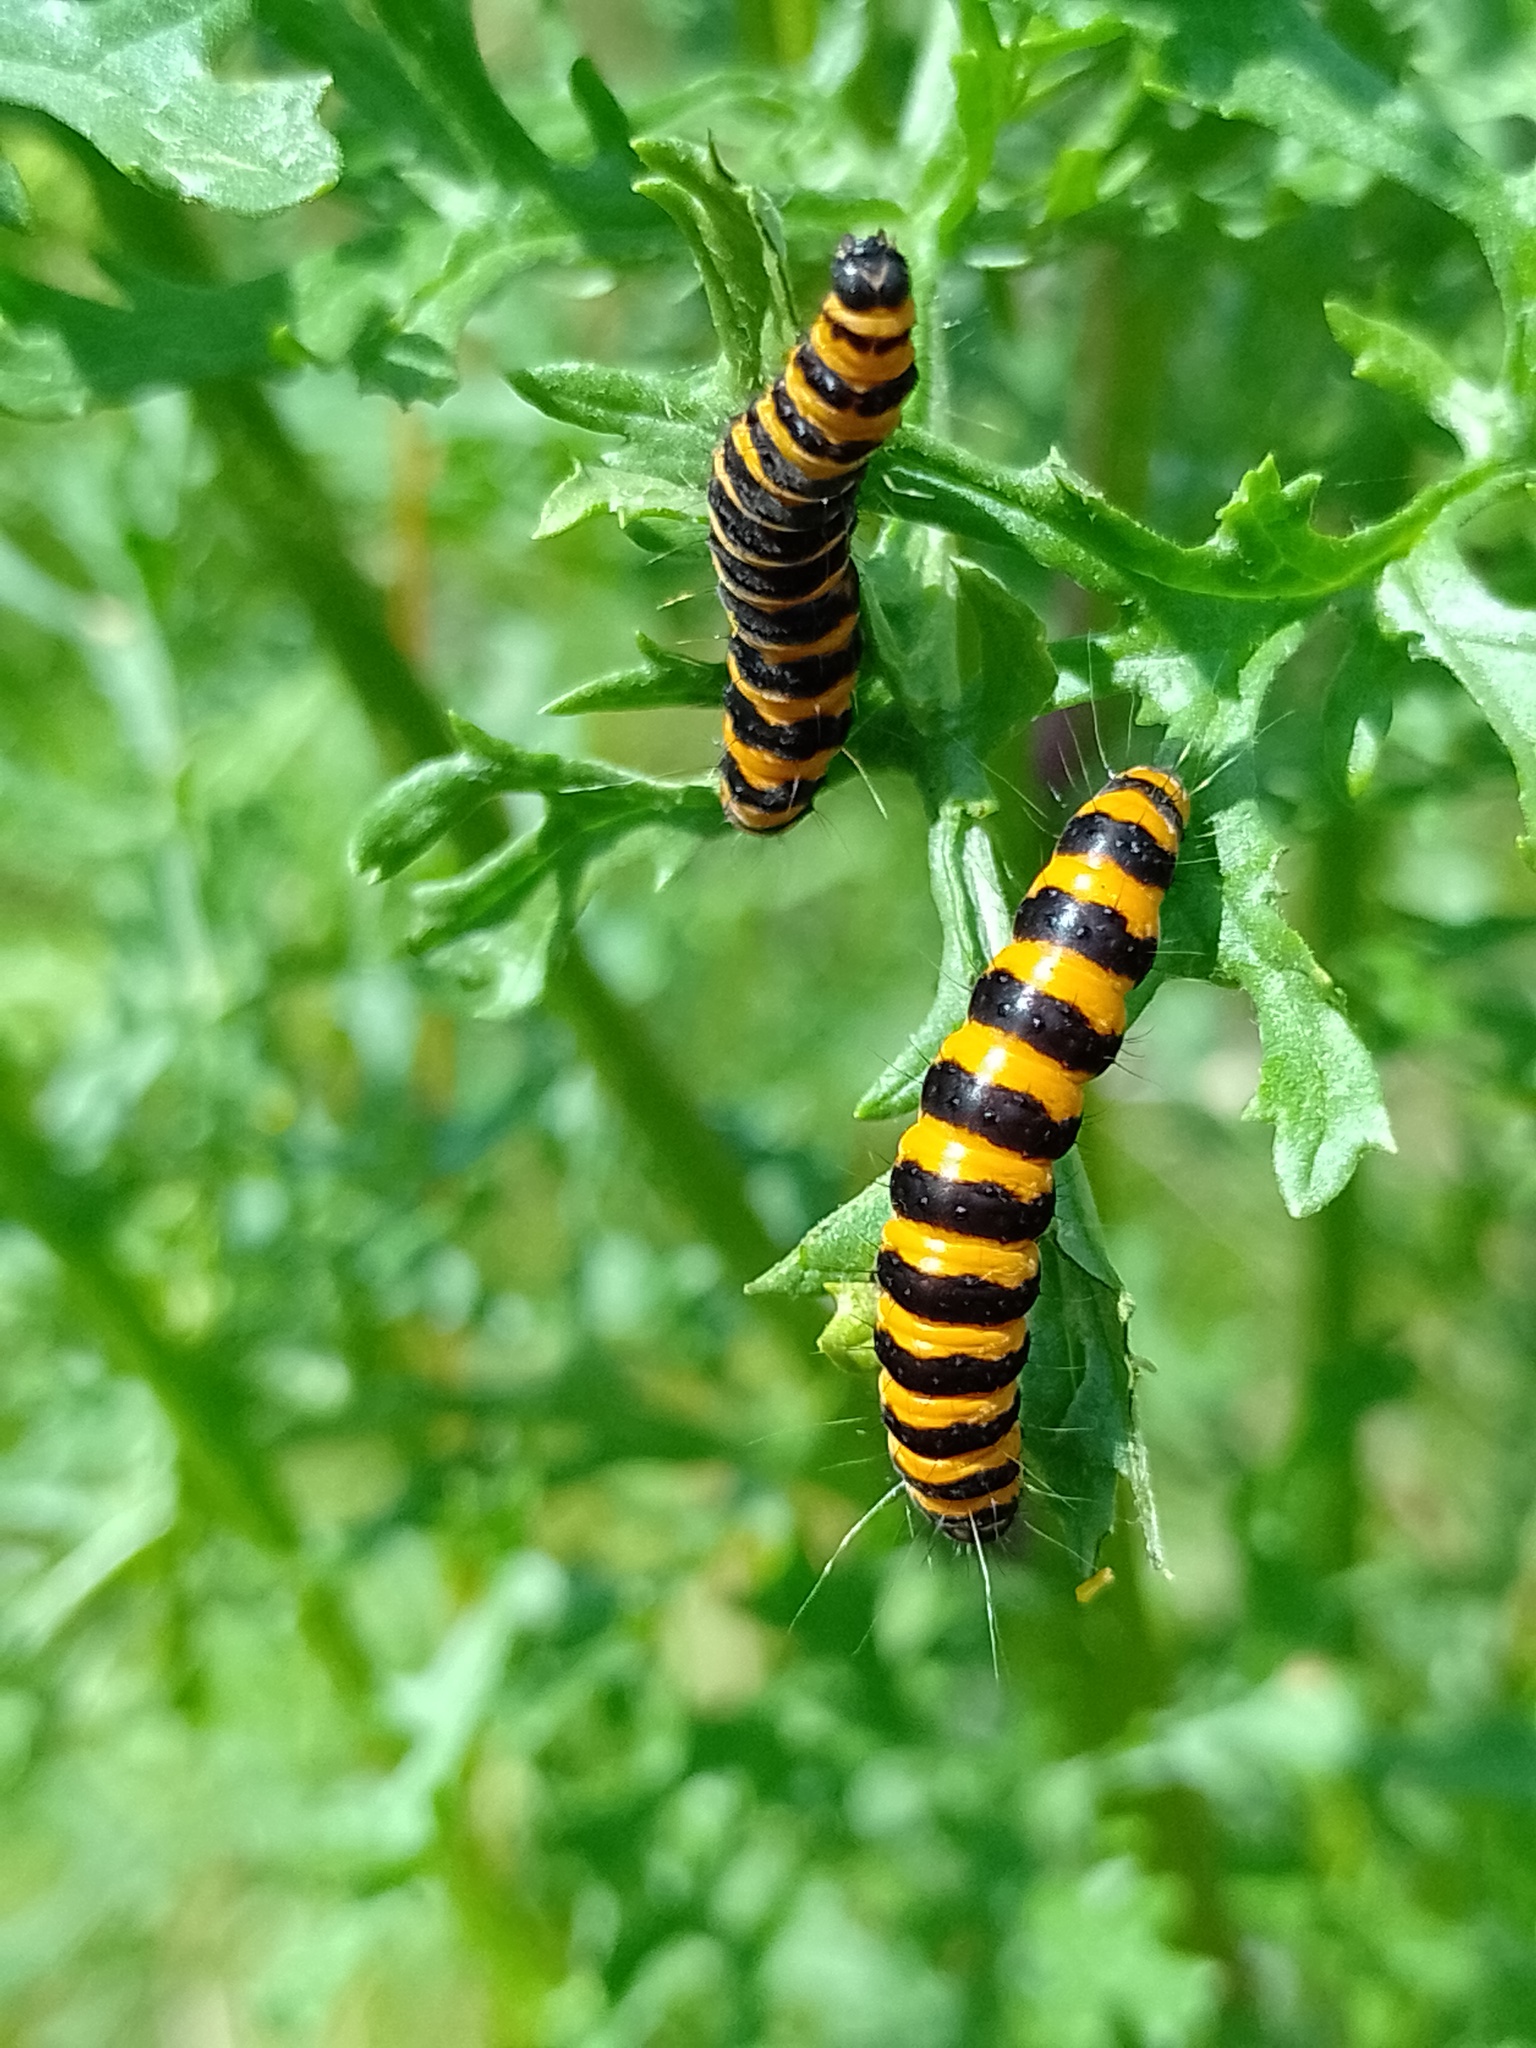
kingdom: Animalia
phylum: Arthropoda
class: Insecta
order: Lepidoptera
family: Erebidae
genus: Tyria
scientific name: Tyria jacobaeae
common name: Cinnabar
